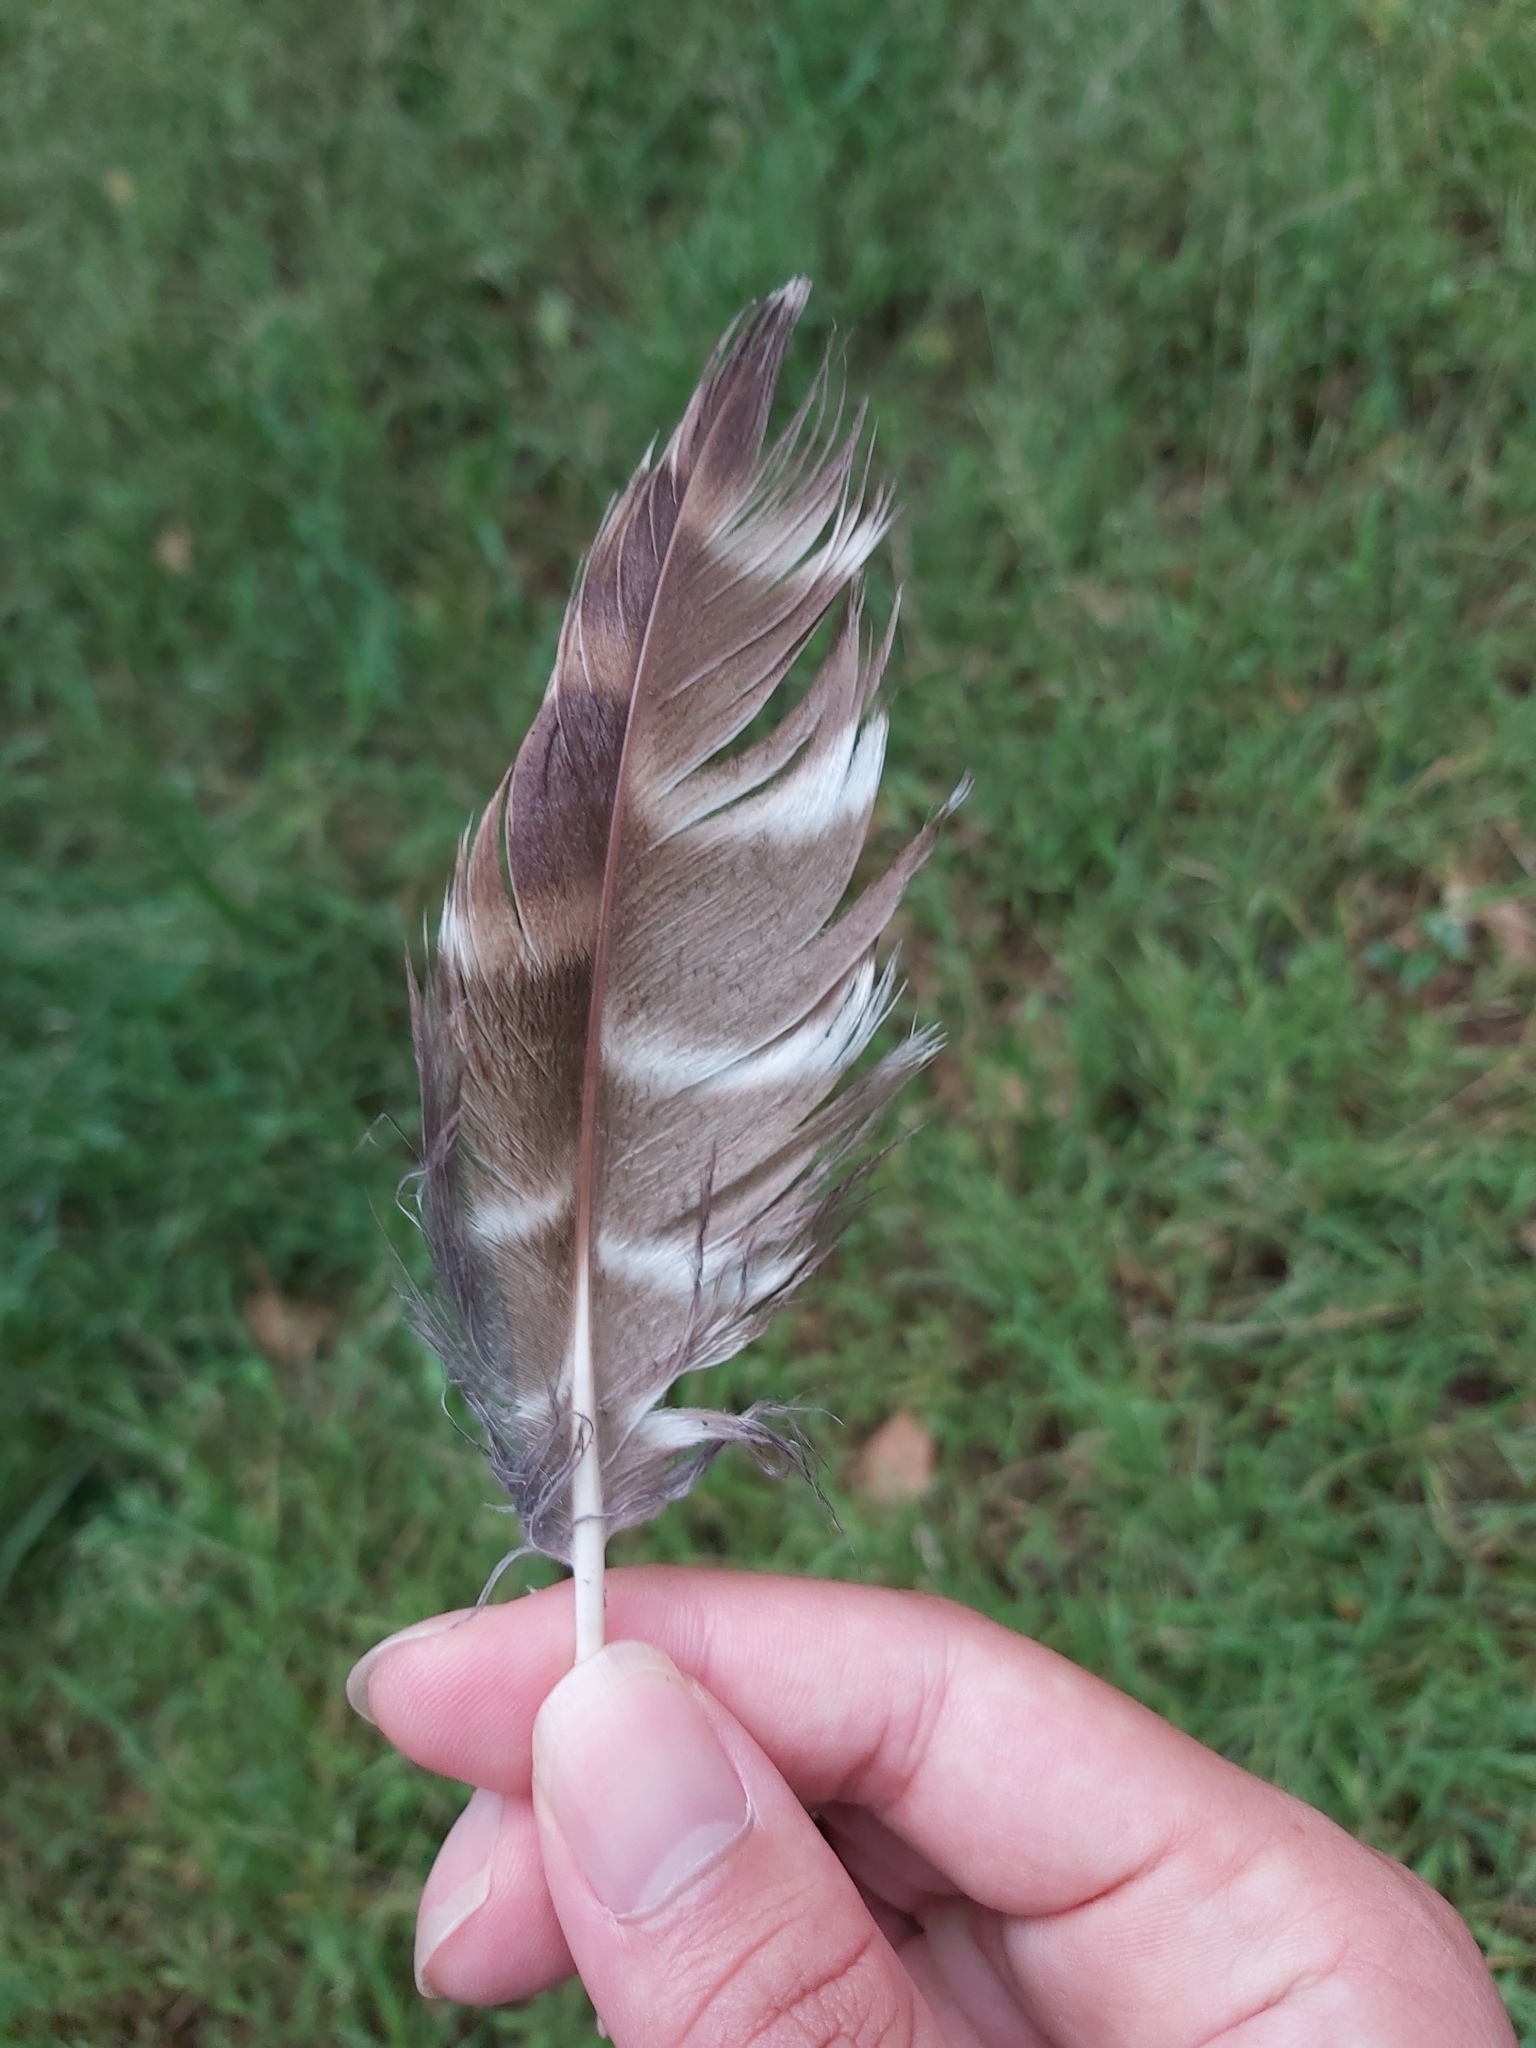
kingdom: Animalia
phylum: Chordata
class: Aves
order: Strigiformes
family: Strigidae
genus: Ninox
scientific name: Ninox strenua
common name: Powerful owl
